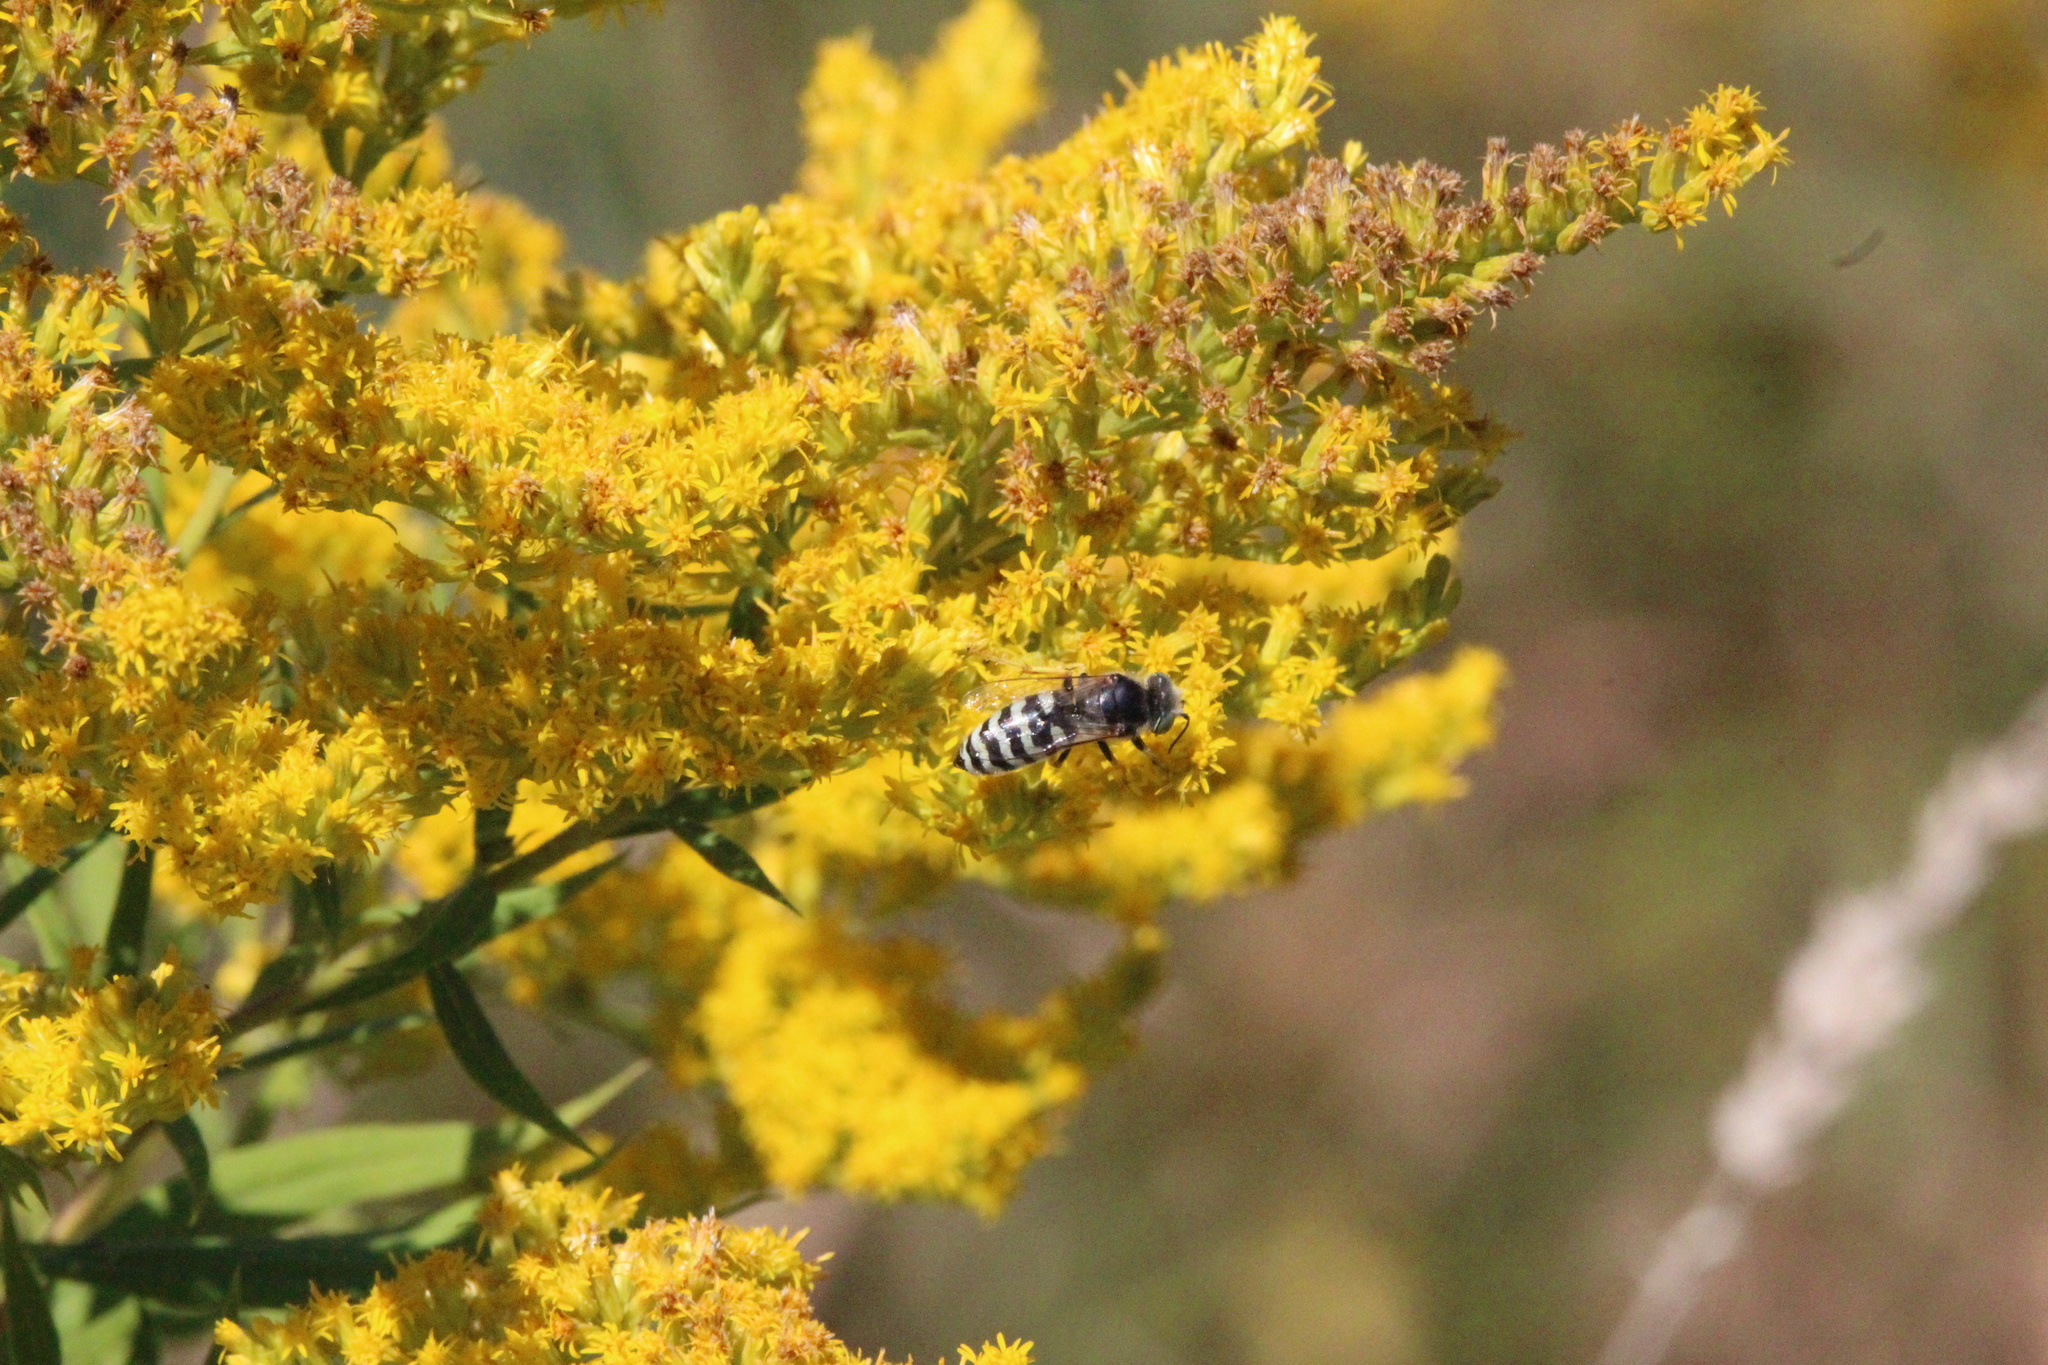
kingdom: Animalia
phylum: Arthropoda
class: Insecta
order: Hymenoptera
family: Crabronidae
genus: Bembix
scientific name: Bembix americana
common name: American sand wasp
